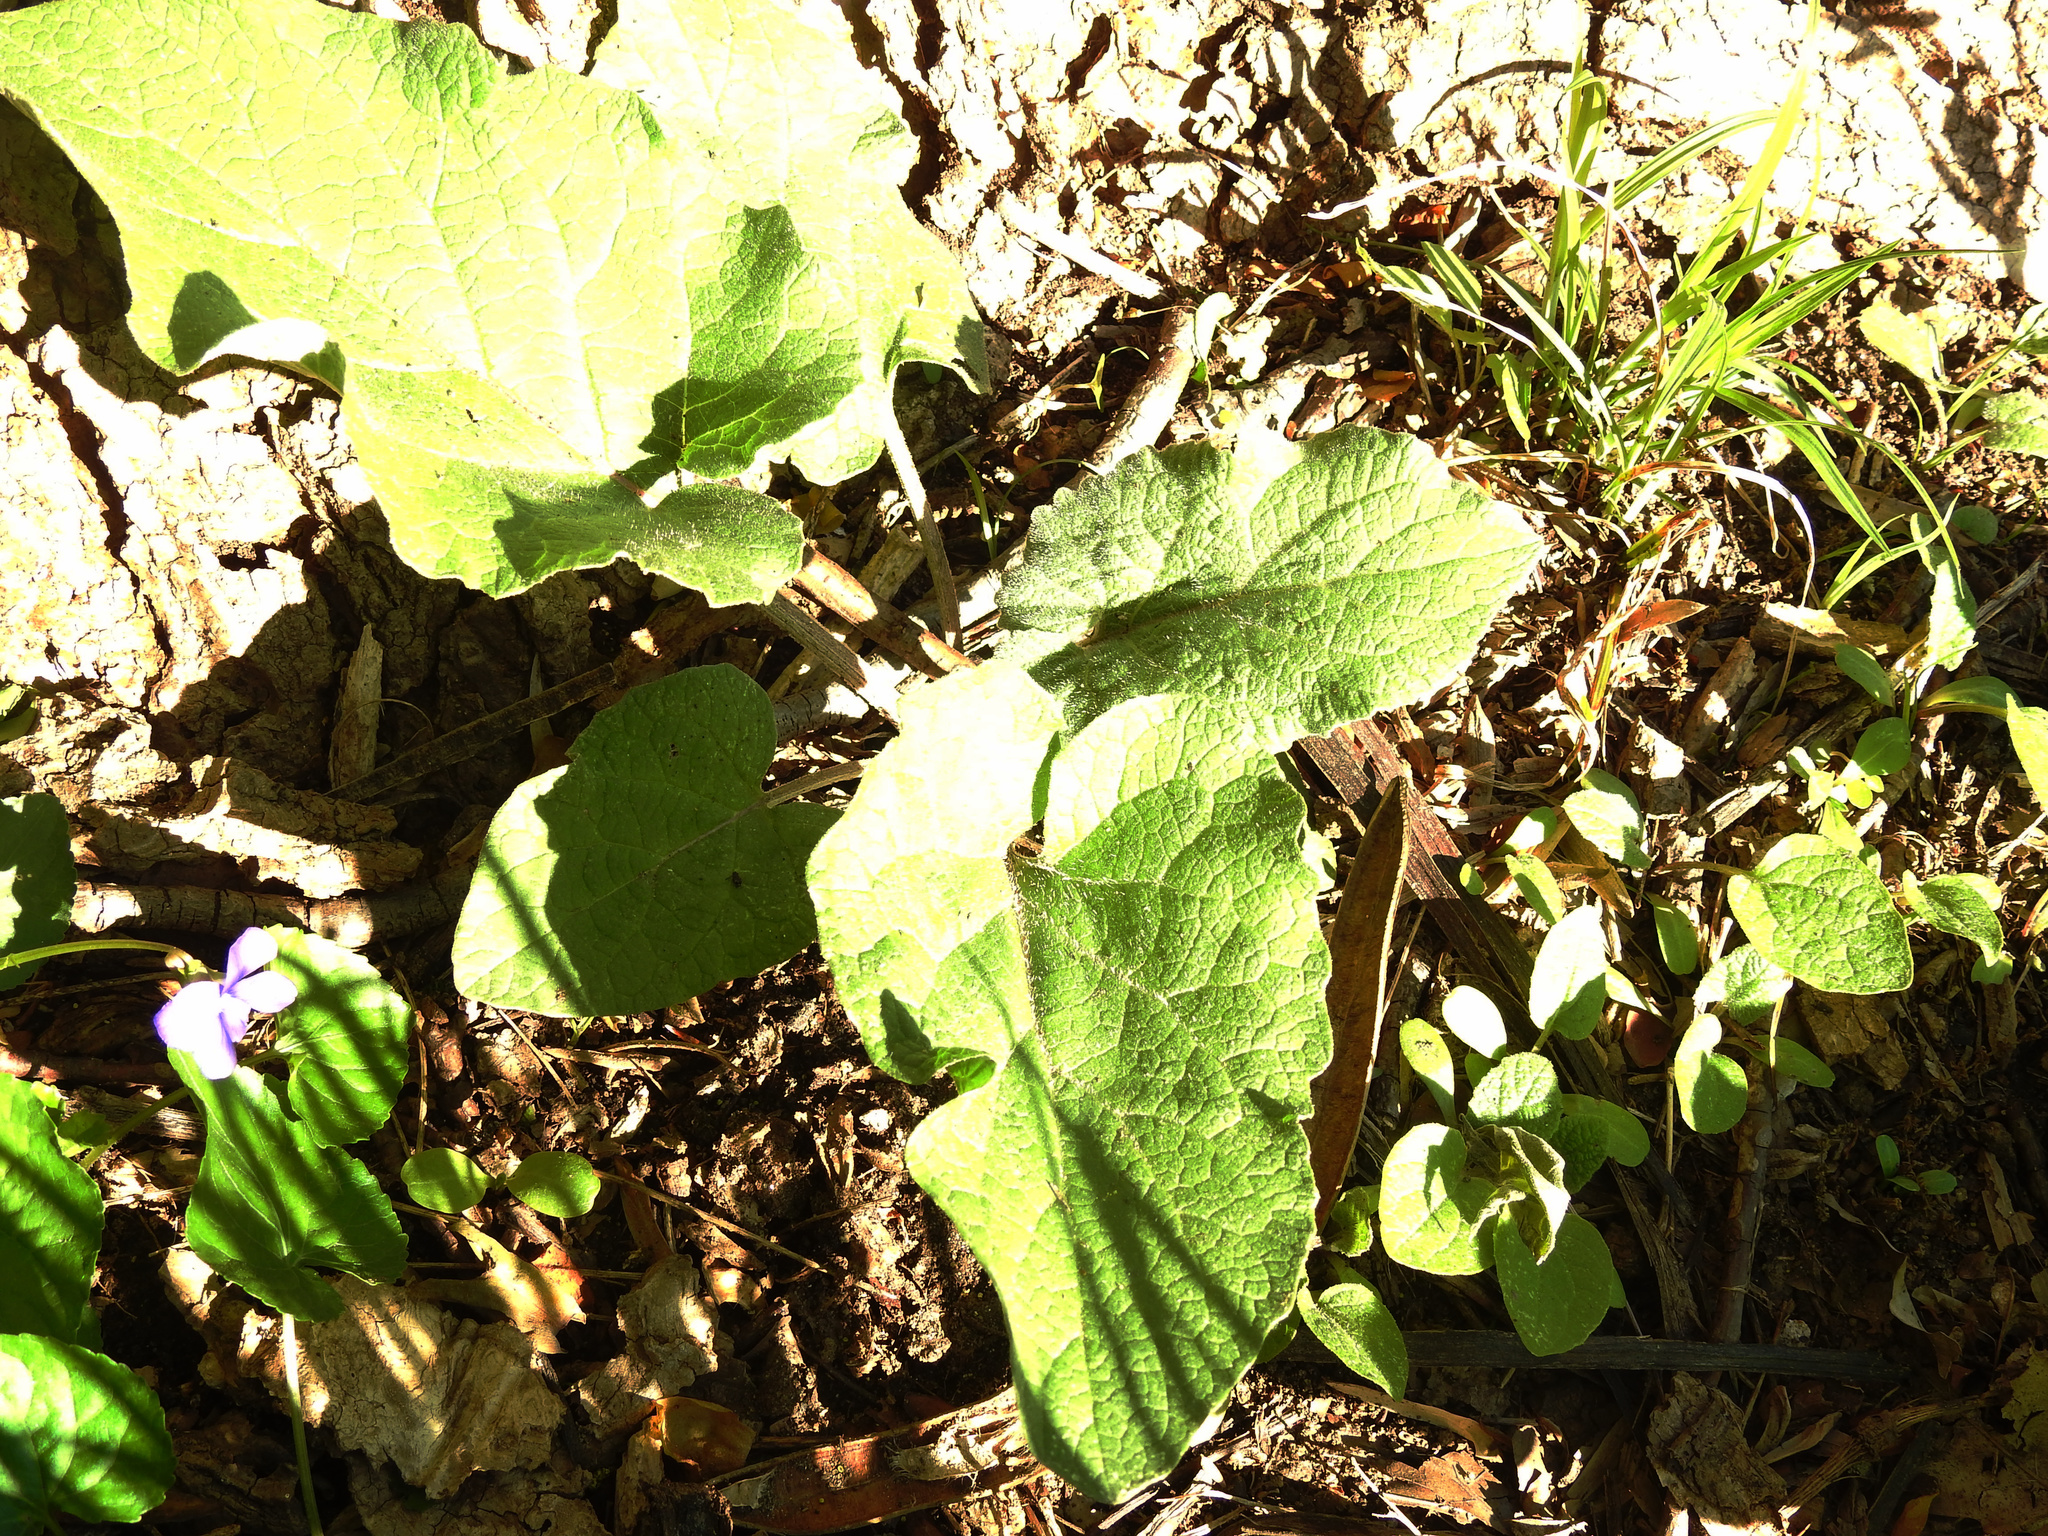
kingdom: Plantae
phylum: Tracheophyta
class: Magnoliopsida
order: Asterales
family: Asteraceae
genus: Arctium
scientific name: Arctium
